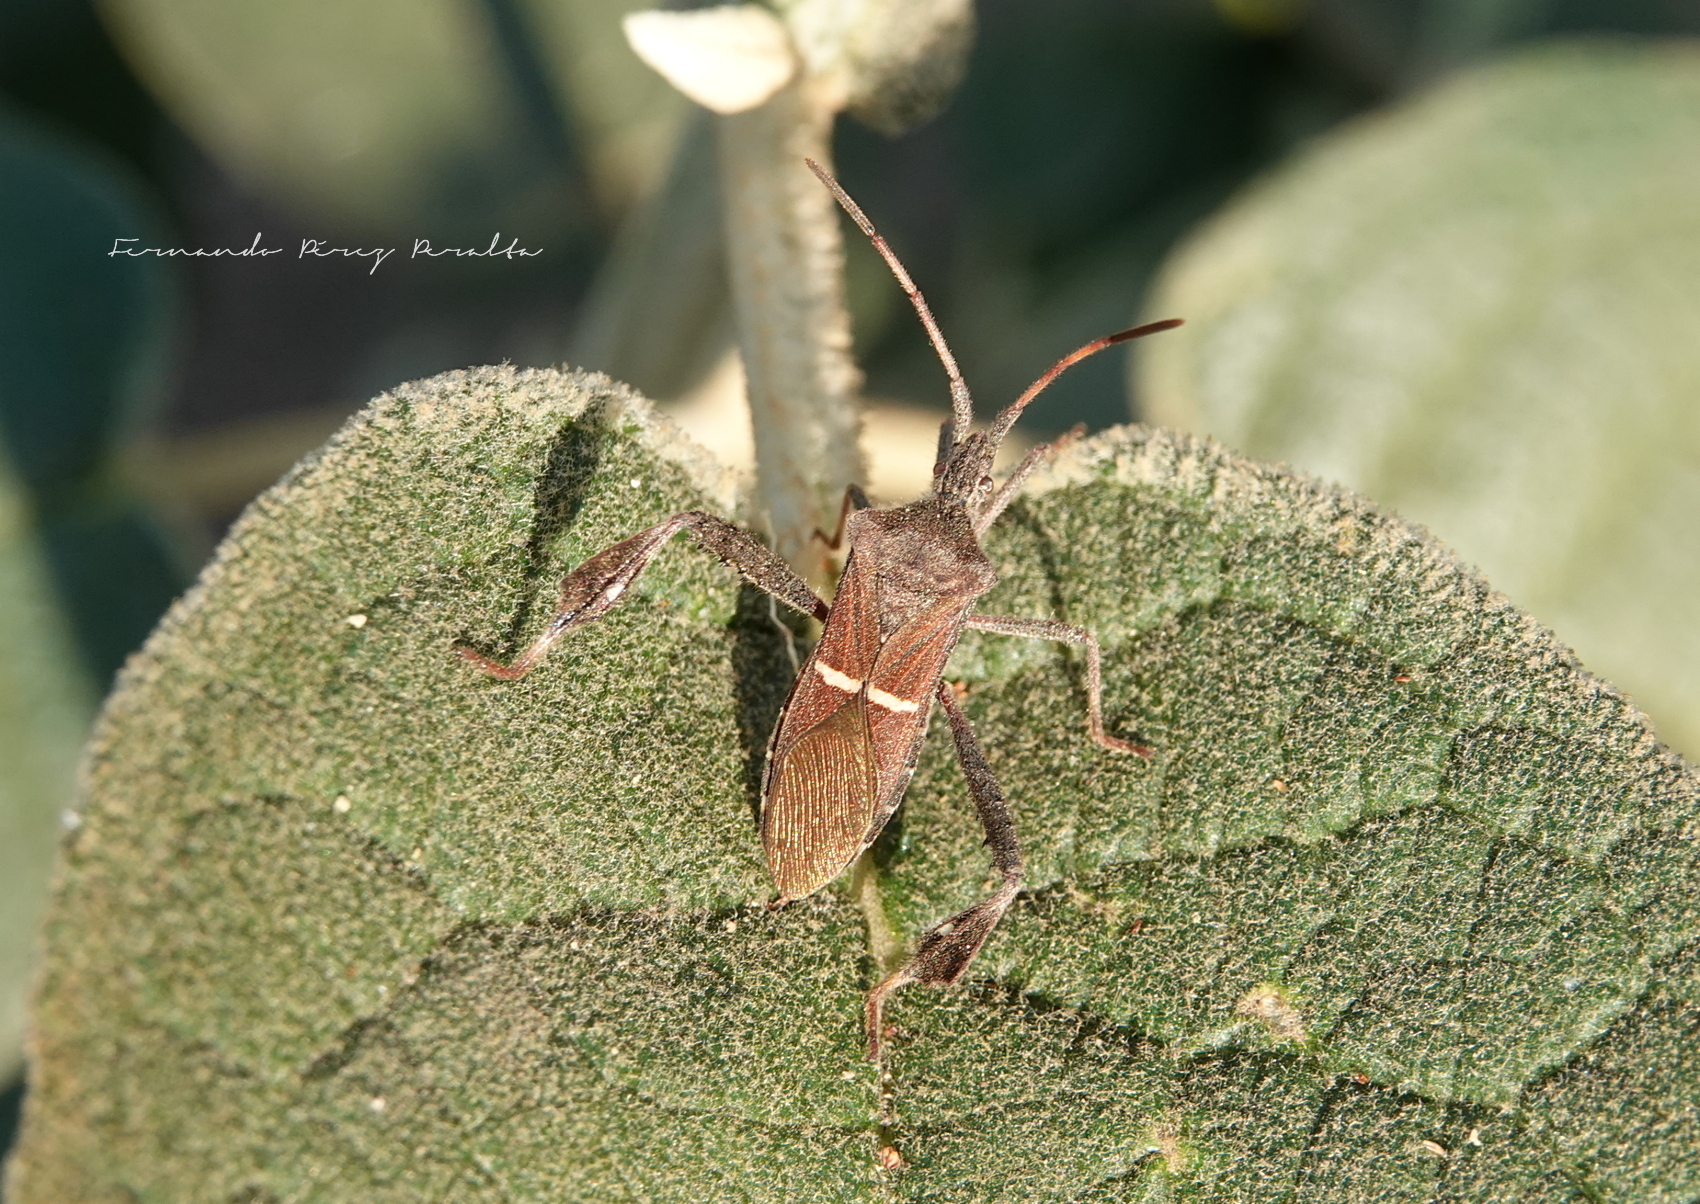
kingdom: Animalia
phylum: Arthropoda
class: Insecta
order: Hemiptera
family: Coreidae
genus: Leptoglossus
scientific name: Leptoglossus phyllopus
